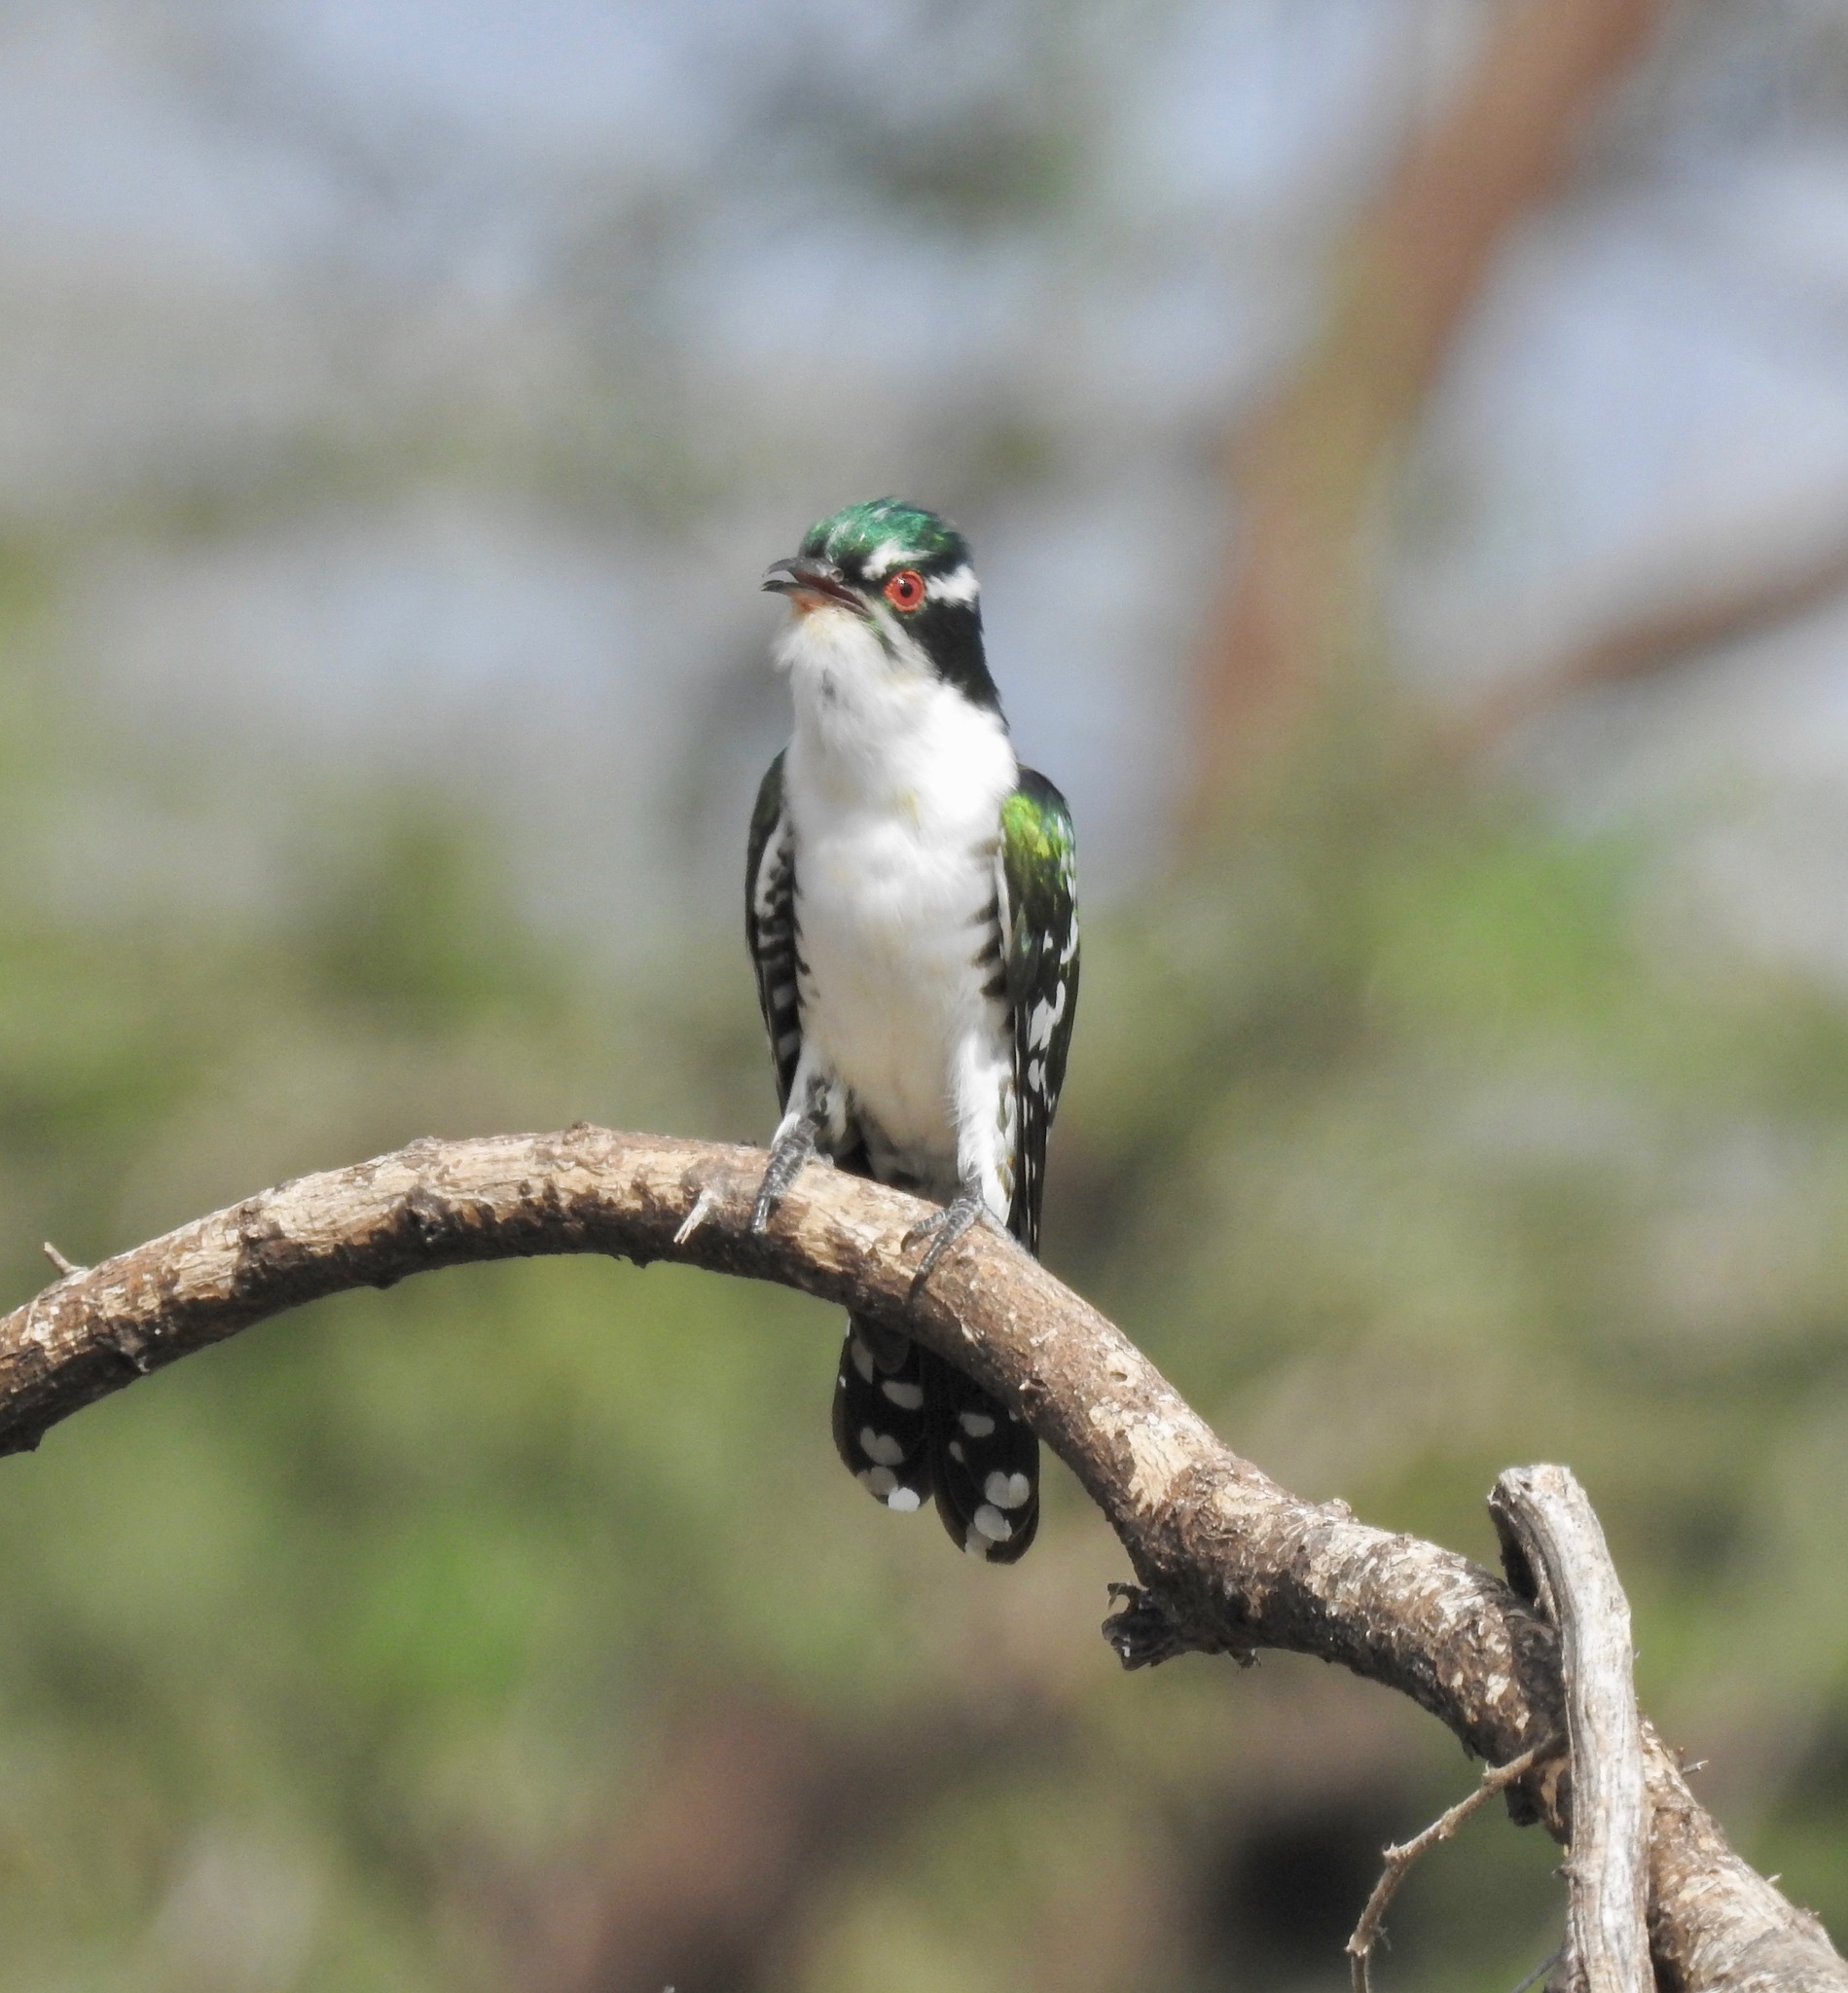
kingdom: Animalia
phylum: Chordata
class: Aves
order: Cuculiformes
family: Cuculidae
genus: Chrysococcyx
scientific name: Chrysococcyx caprius
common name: Diederik cuckoo
